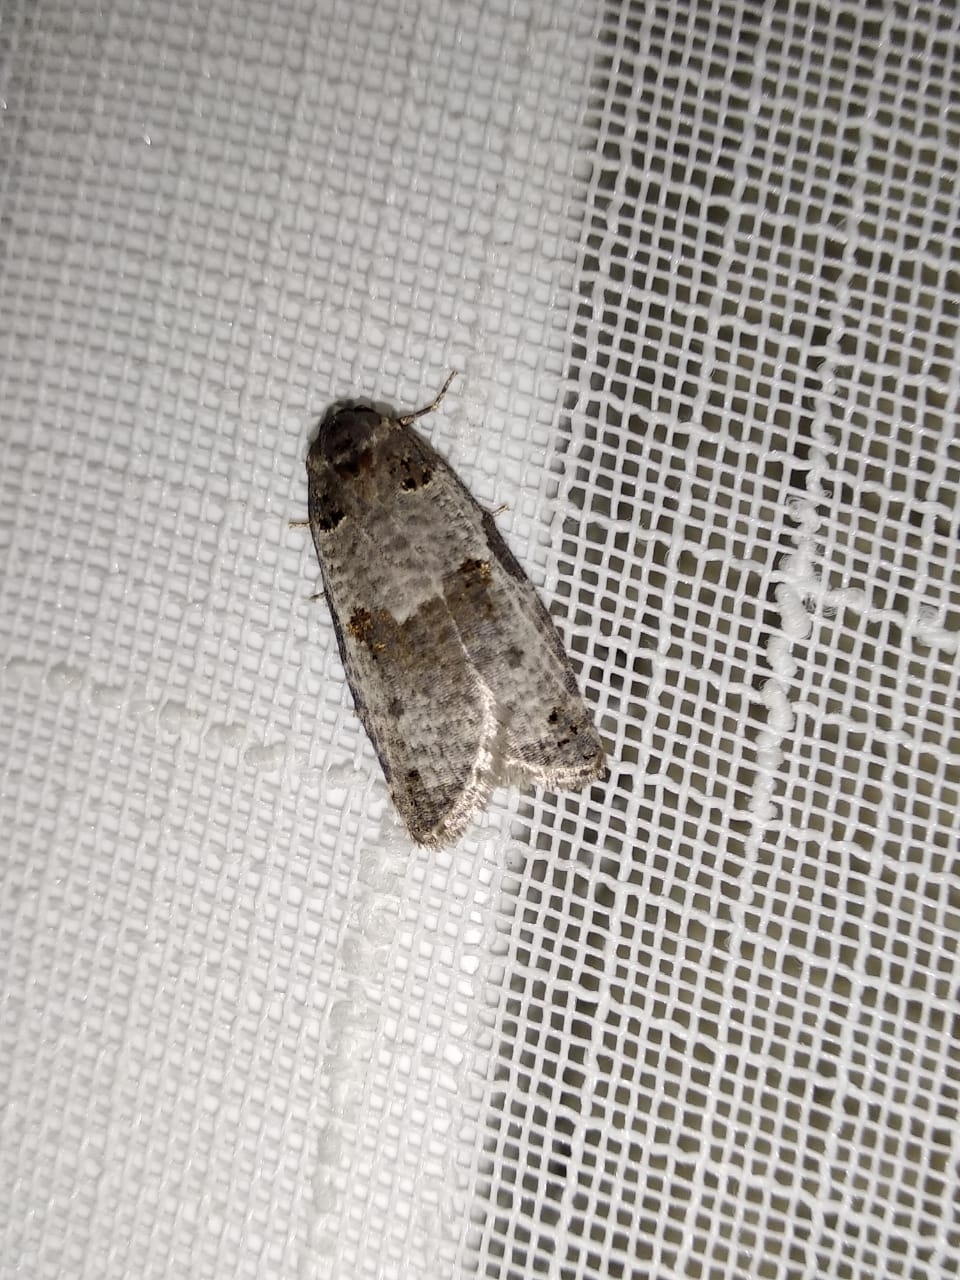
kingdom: Animalia
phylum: Arthropoda
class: Insecta
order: Lepidoptera
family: Tortricidae
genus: Pseudeulia
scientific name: Pseudeulia asinana
